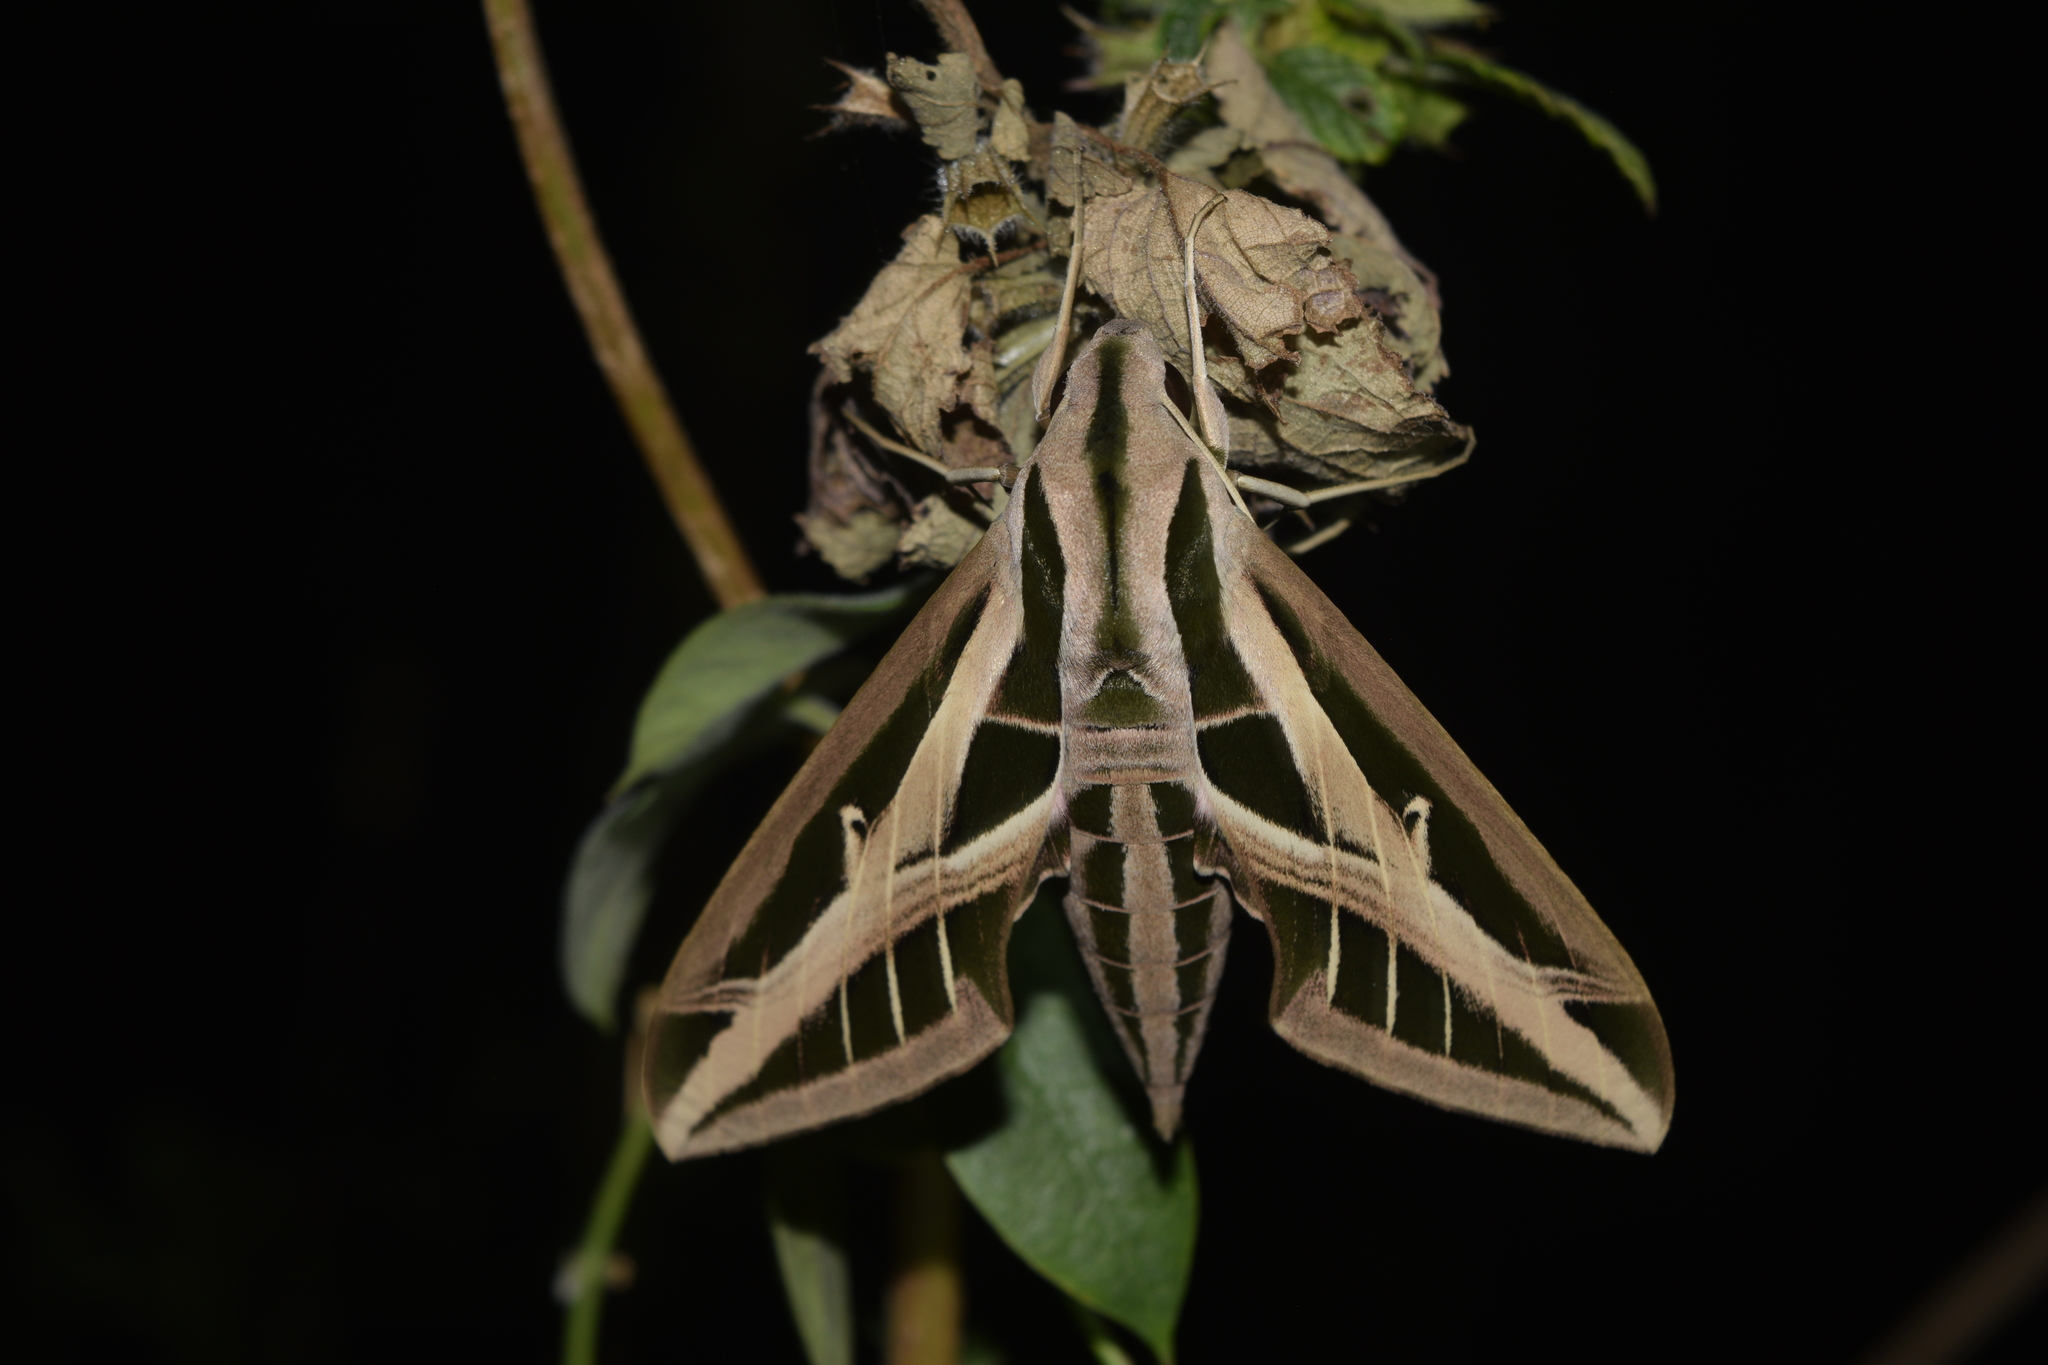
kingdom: Animalia
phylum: Arthropoda
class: Insecta
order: Lepidoptera
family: Sphingidae
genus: Eumorpha
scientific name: Eumorpha fasciatus
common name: Banded sphinx
